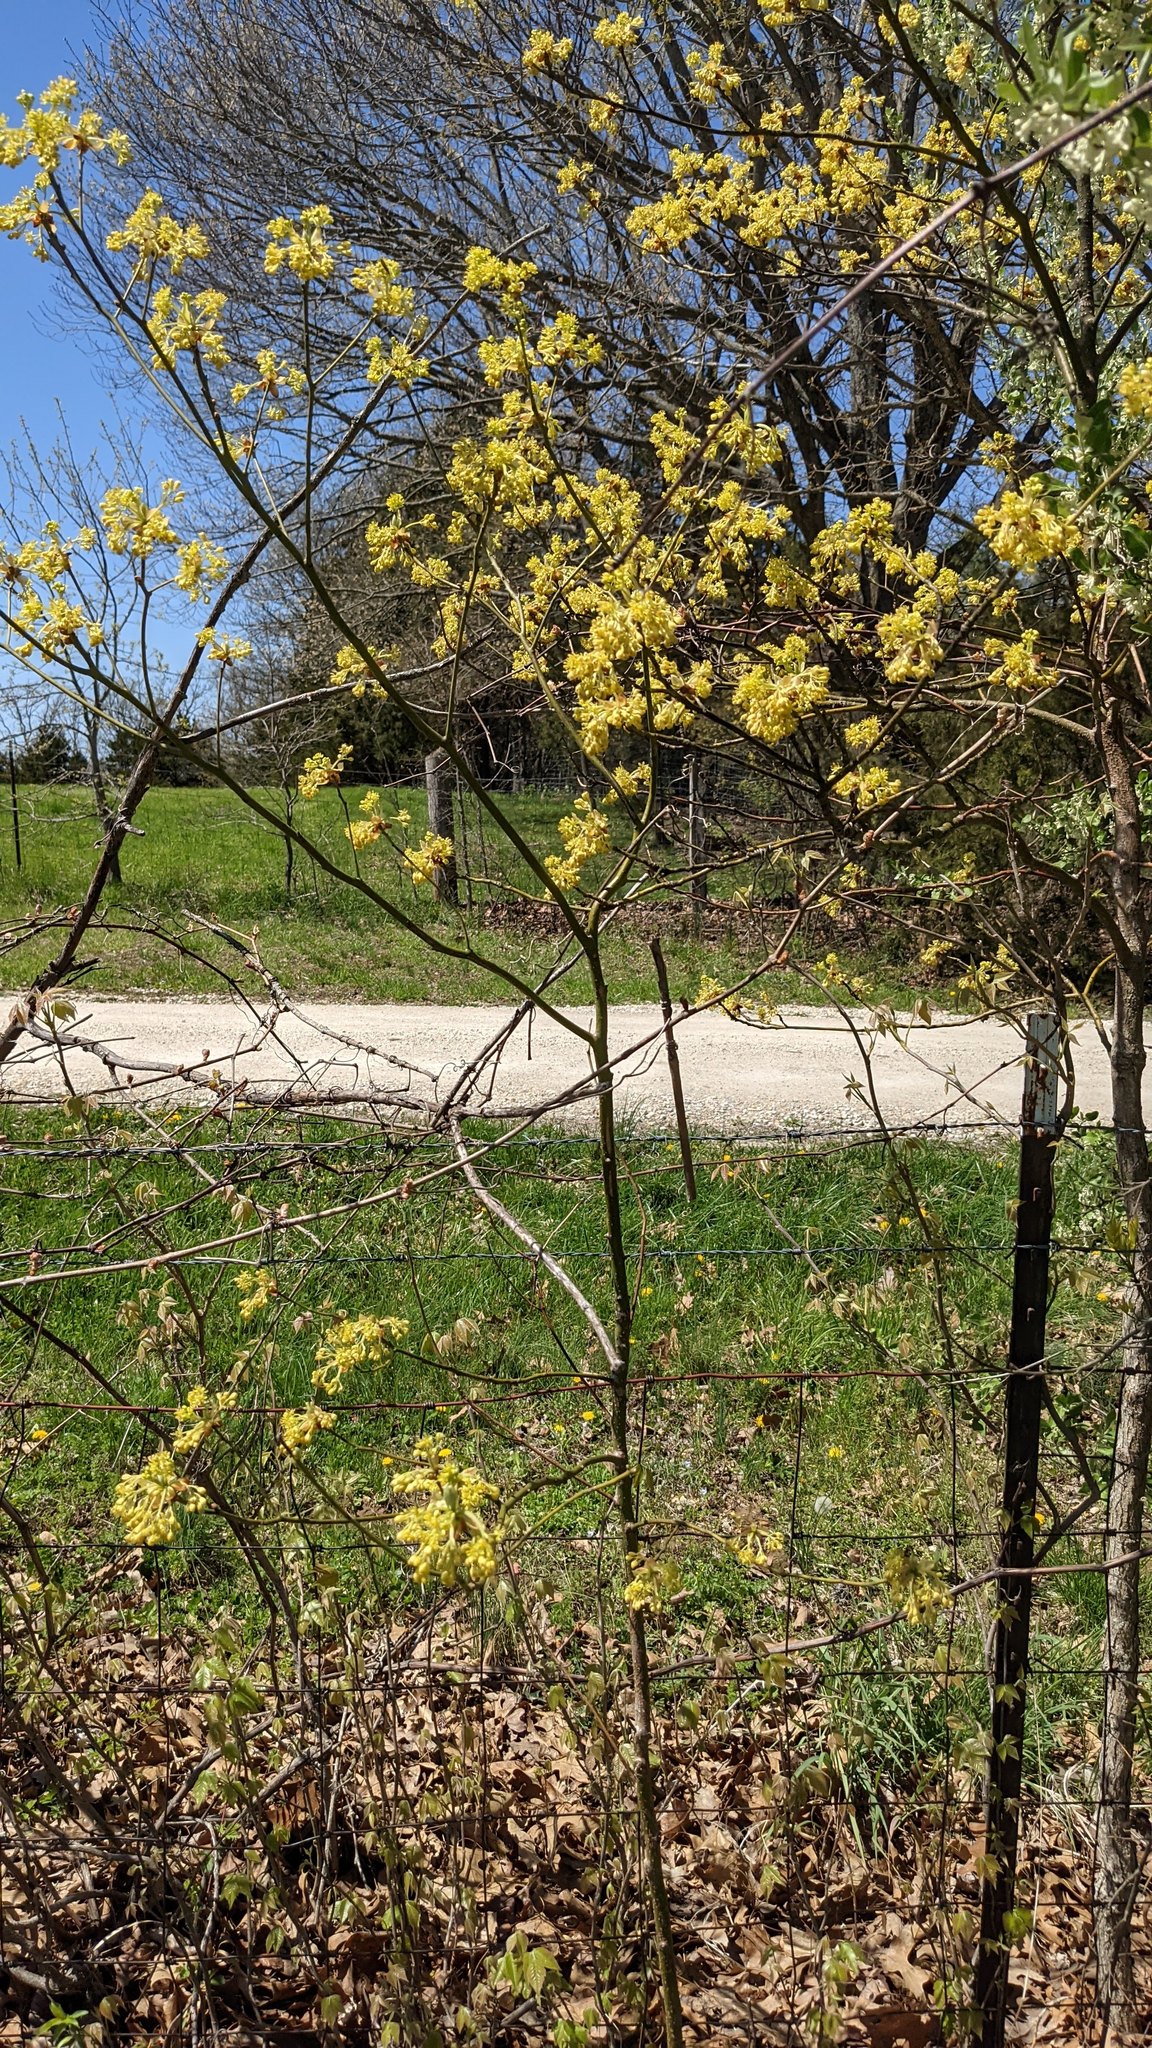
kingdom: Plantae
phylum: Tracheophyta
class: Magnoliopsida
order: Laurales
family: Lauraceae
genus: Sassafras
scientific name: Sassafras albidum
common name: Sassafras
